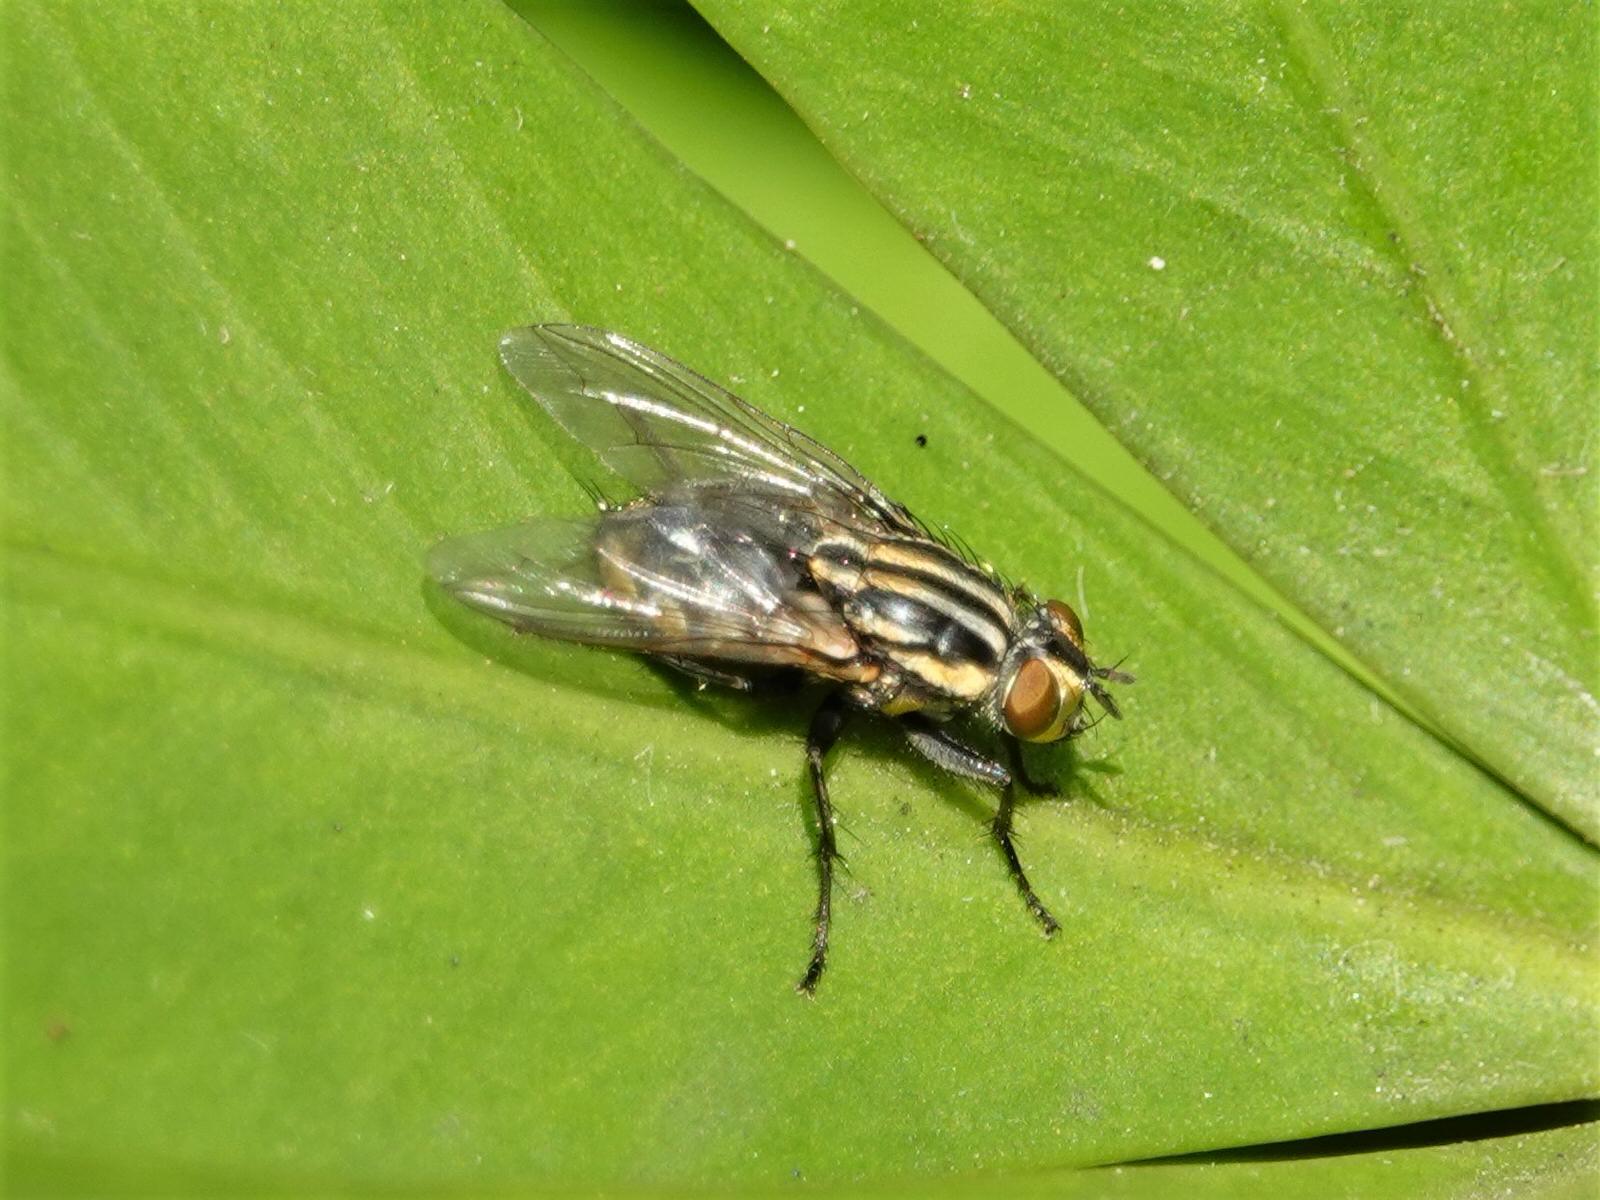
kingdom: Animalia
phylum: Arthropoda
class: Insecta
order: Diptera
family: Sarcophagidae
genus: Oxysarcodexia
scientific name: Oxysarcodexia varia
